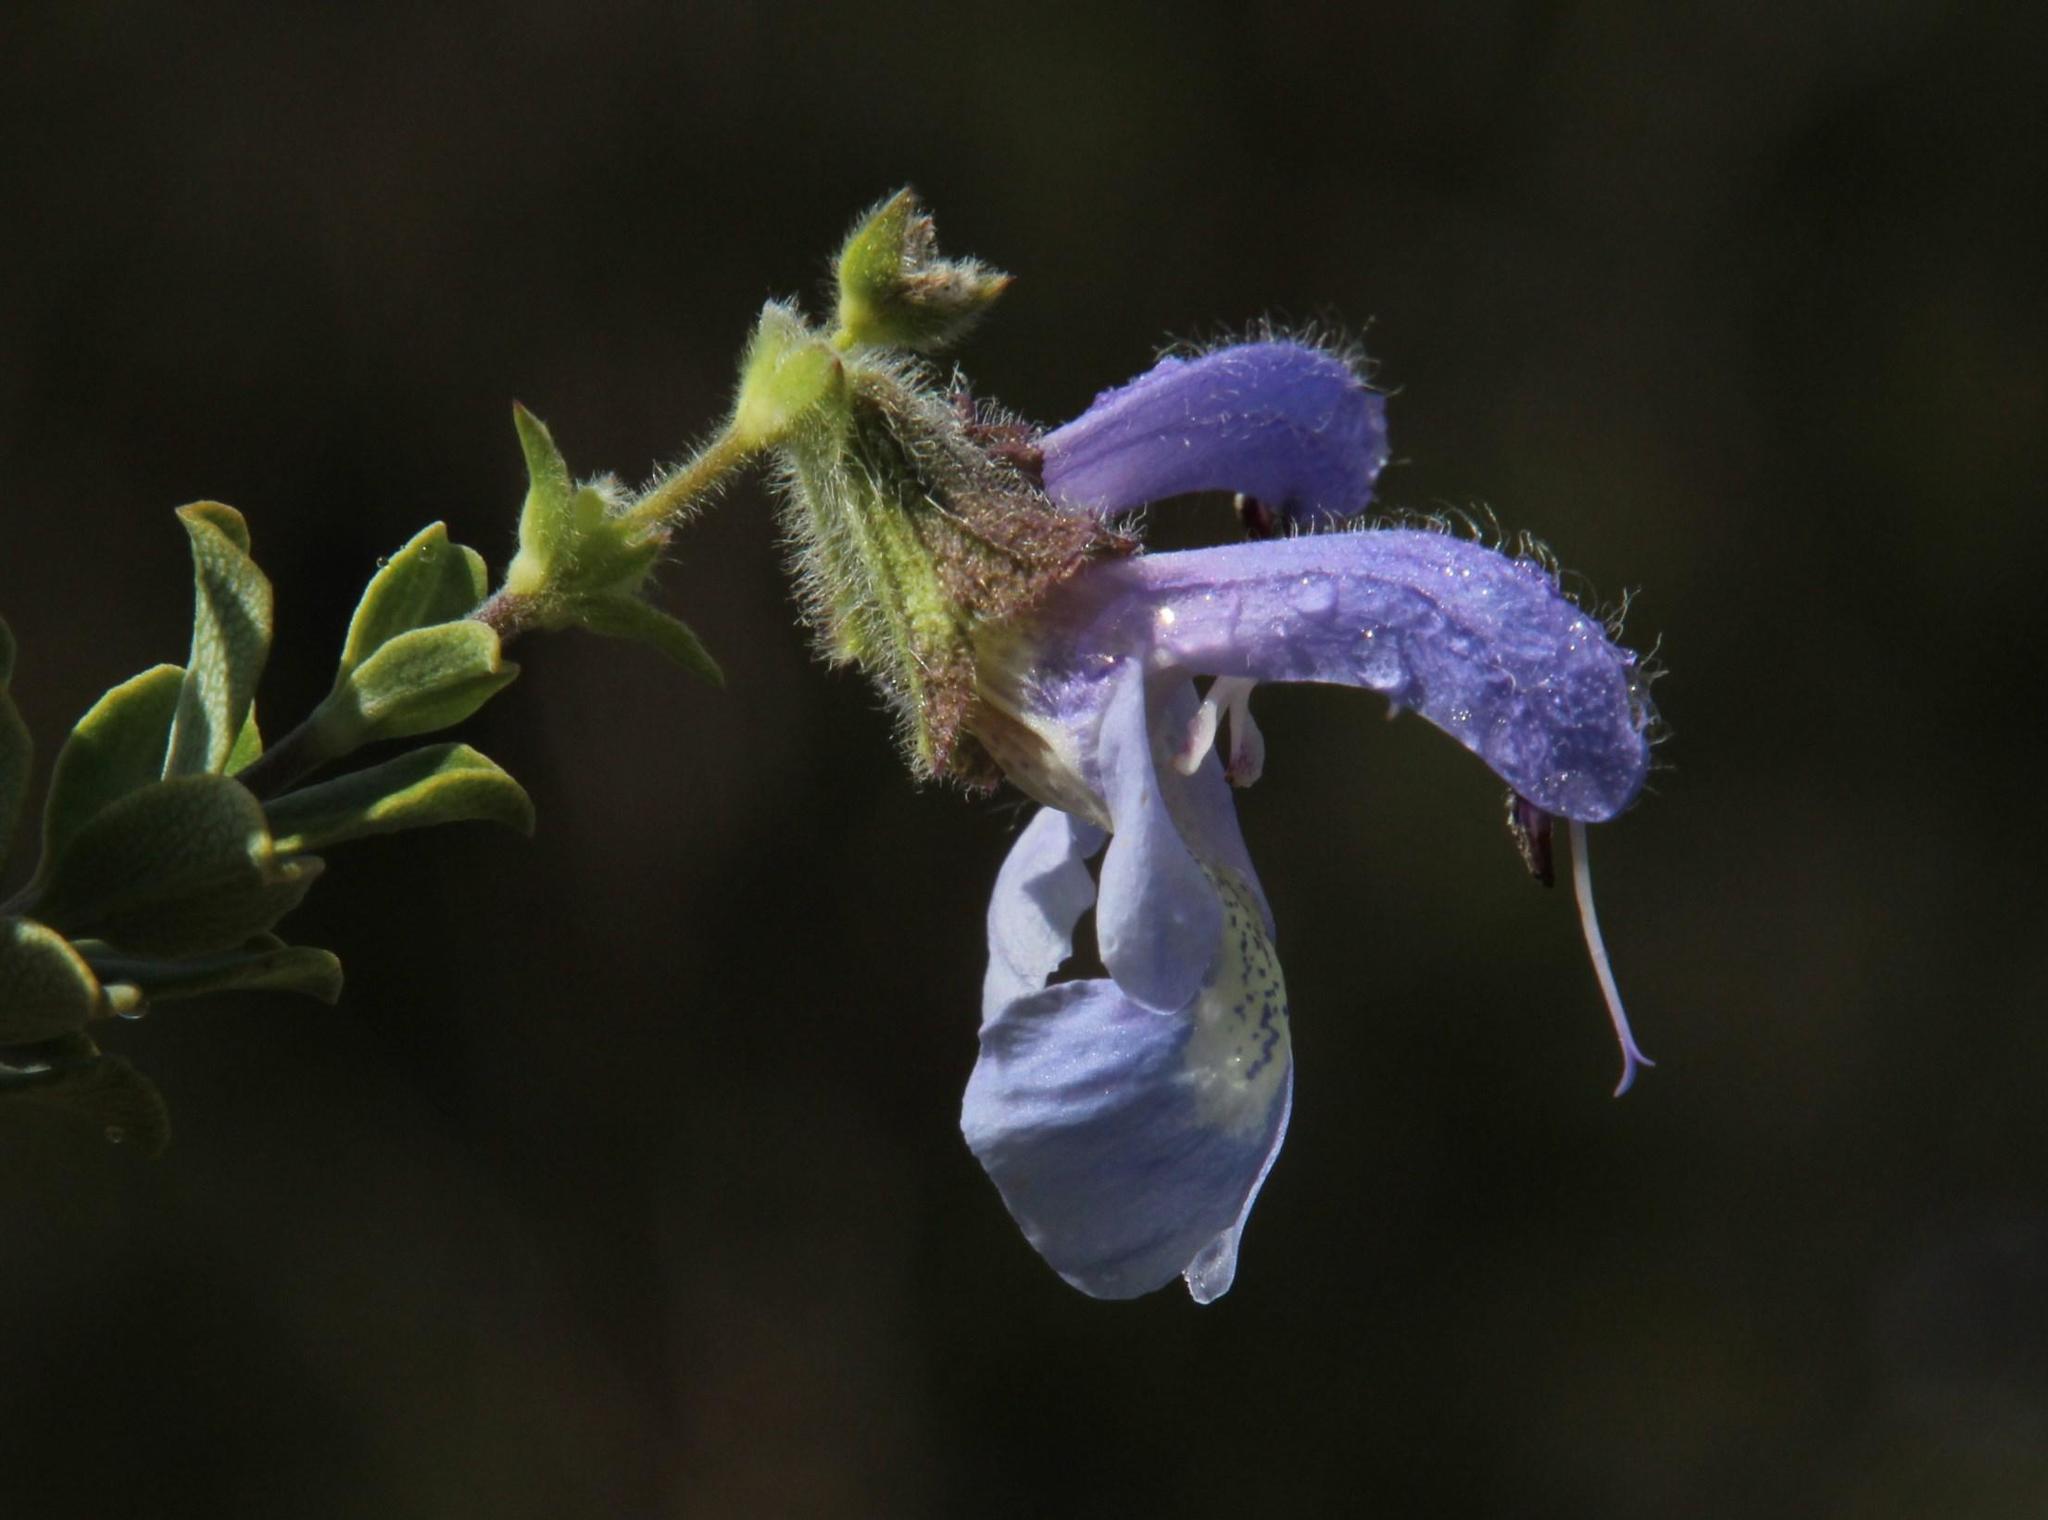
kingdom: Plantae
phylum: Tracheophyta
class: Magnoliopsida
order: Lamiales
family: Lamiaceae
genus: Salvia
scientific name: Salvia chamelaeagnea
